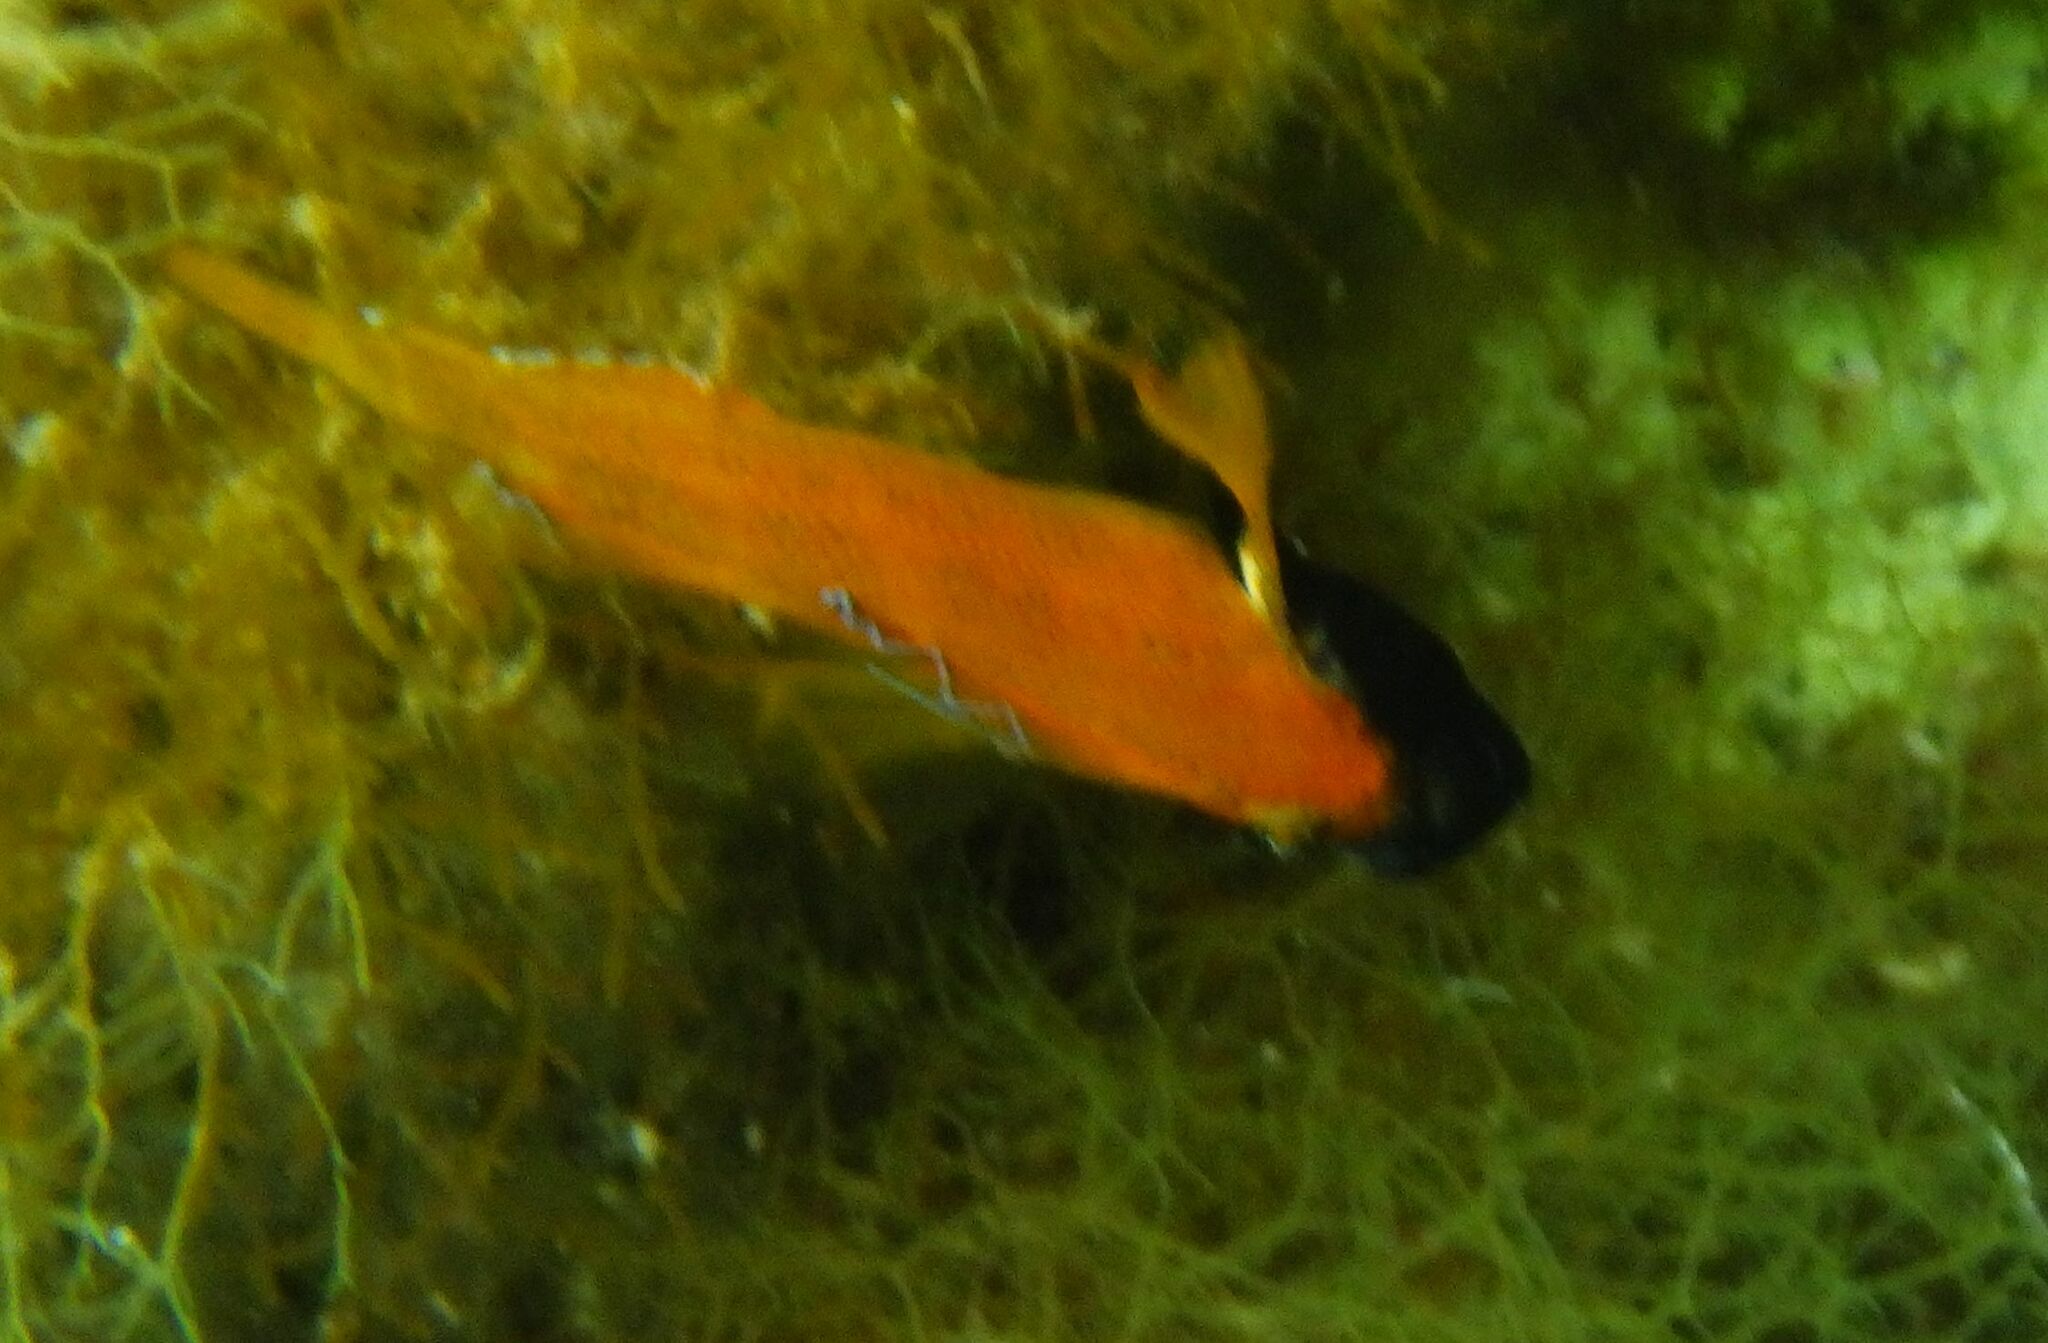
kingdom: Animalia
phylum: Chordata
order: Perciformes
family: Tripterygiidae
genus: Tripterygion
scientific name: Tripterygion delaisi
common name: Black-face blenny
